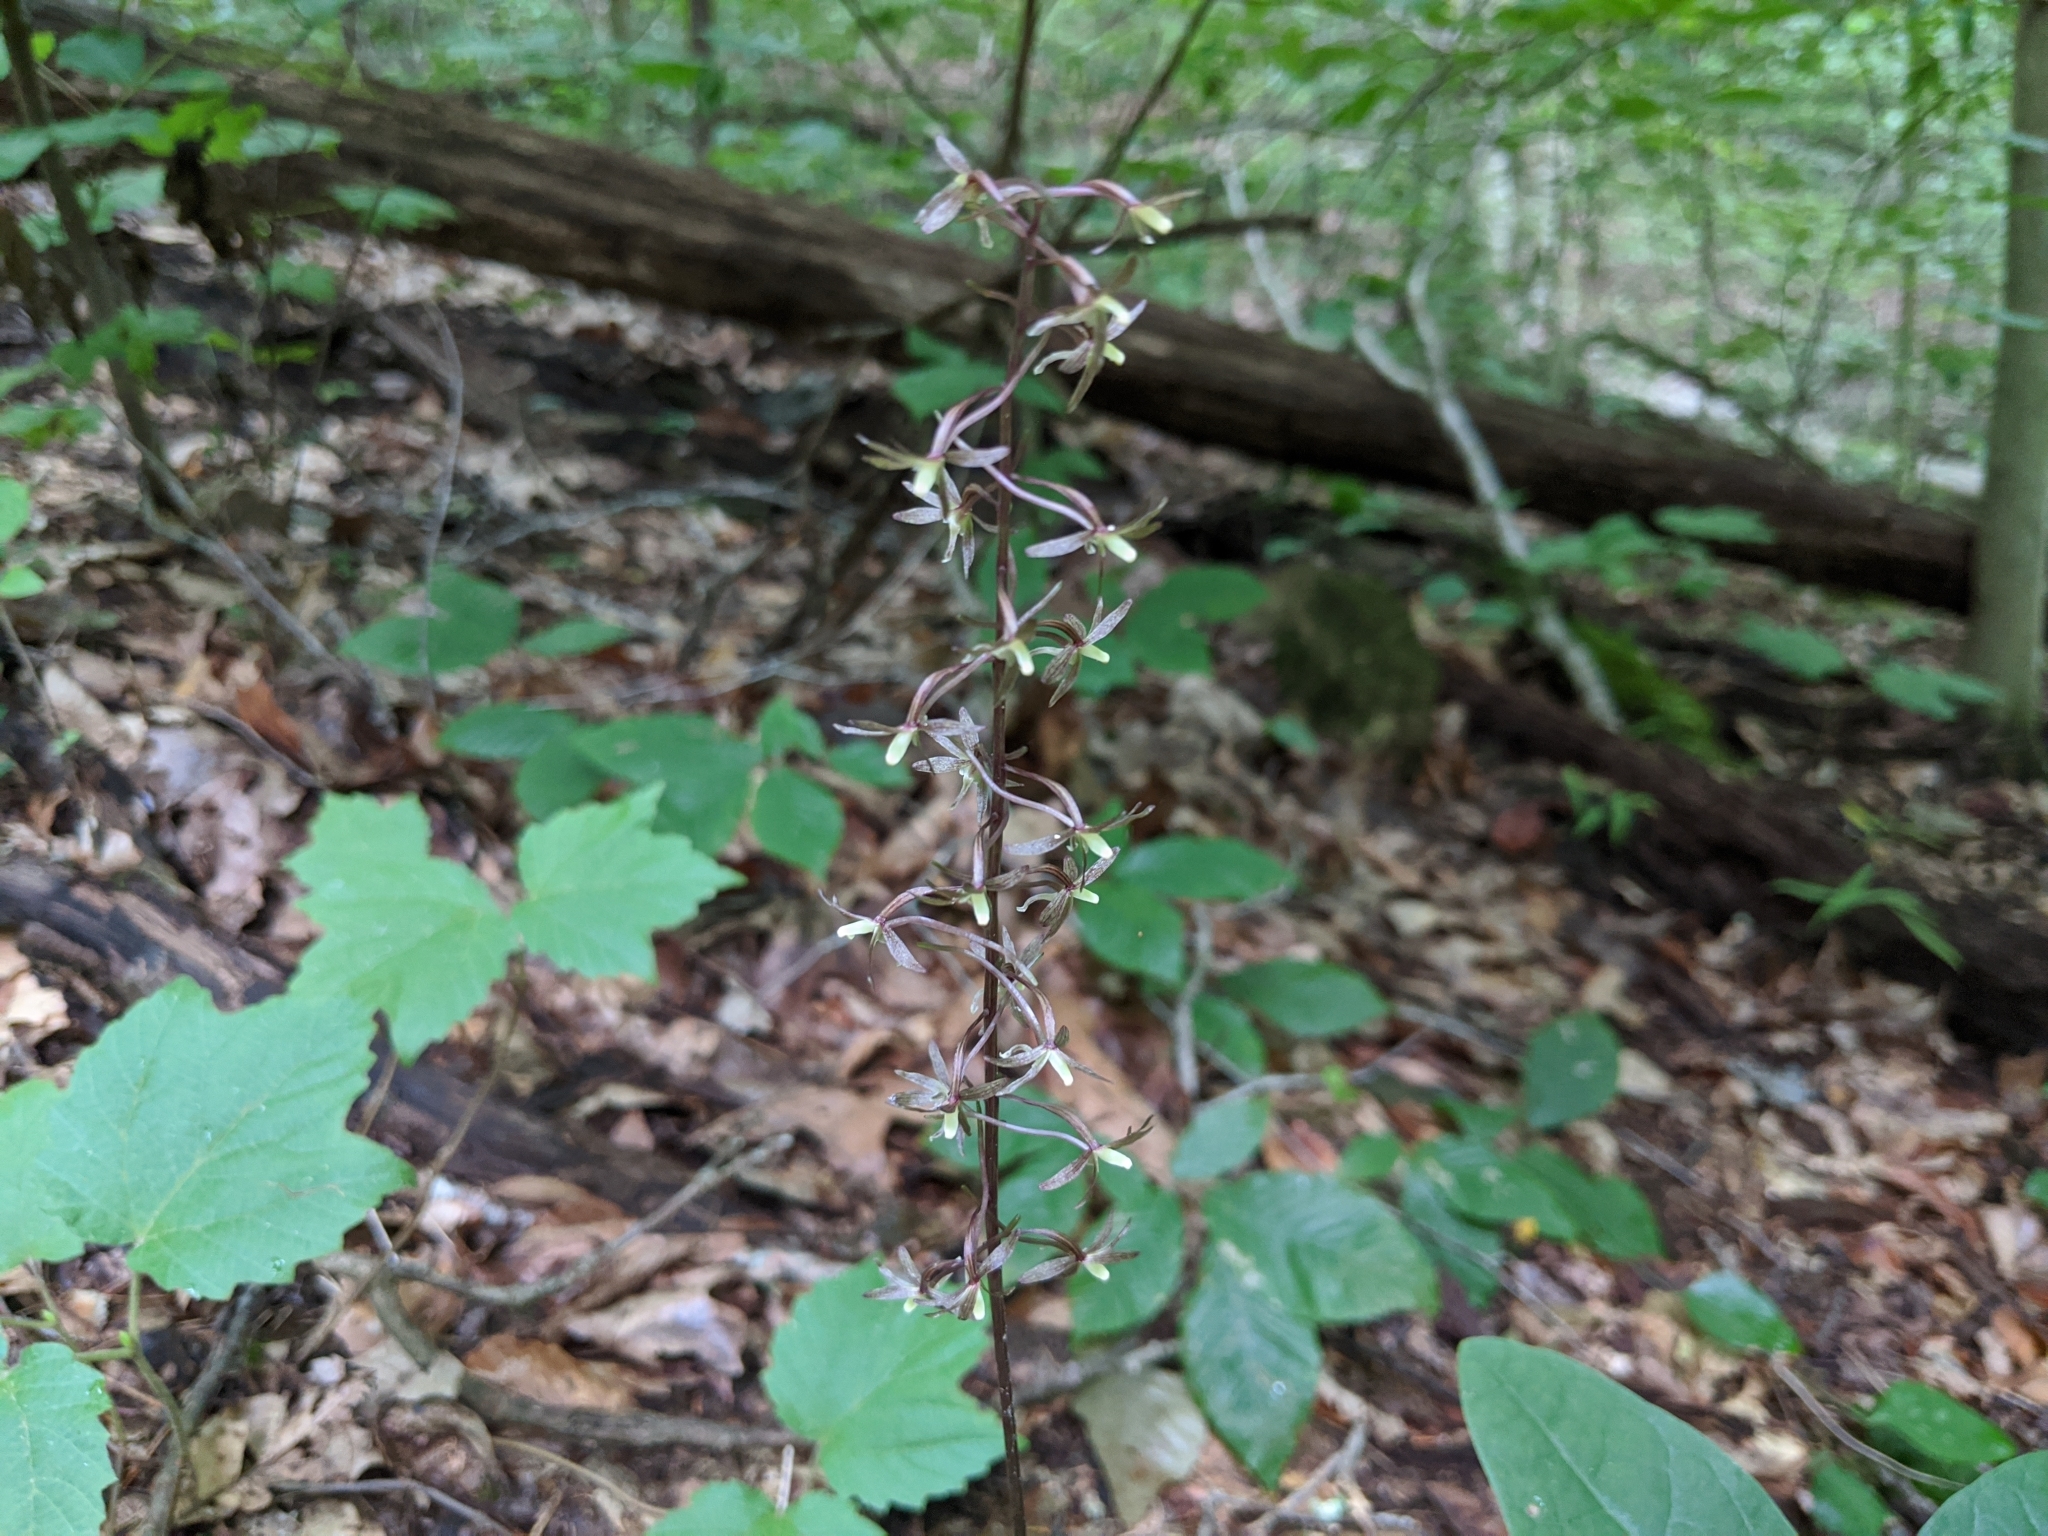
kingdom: Plantae
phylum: Tracheophyta
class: Liliopsida
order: Asparagales
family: Orchidaceae
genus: Tipularia
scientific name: Tipularia discolor
